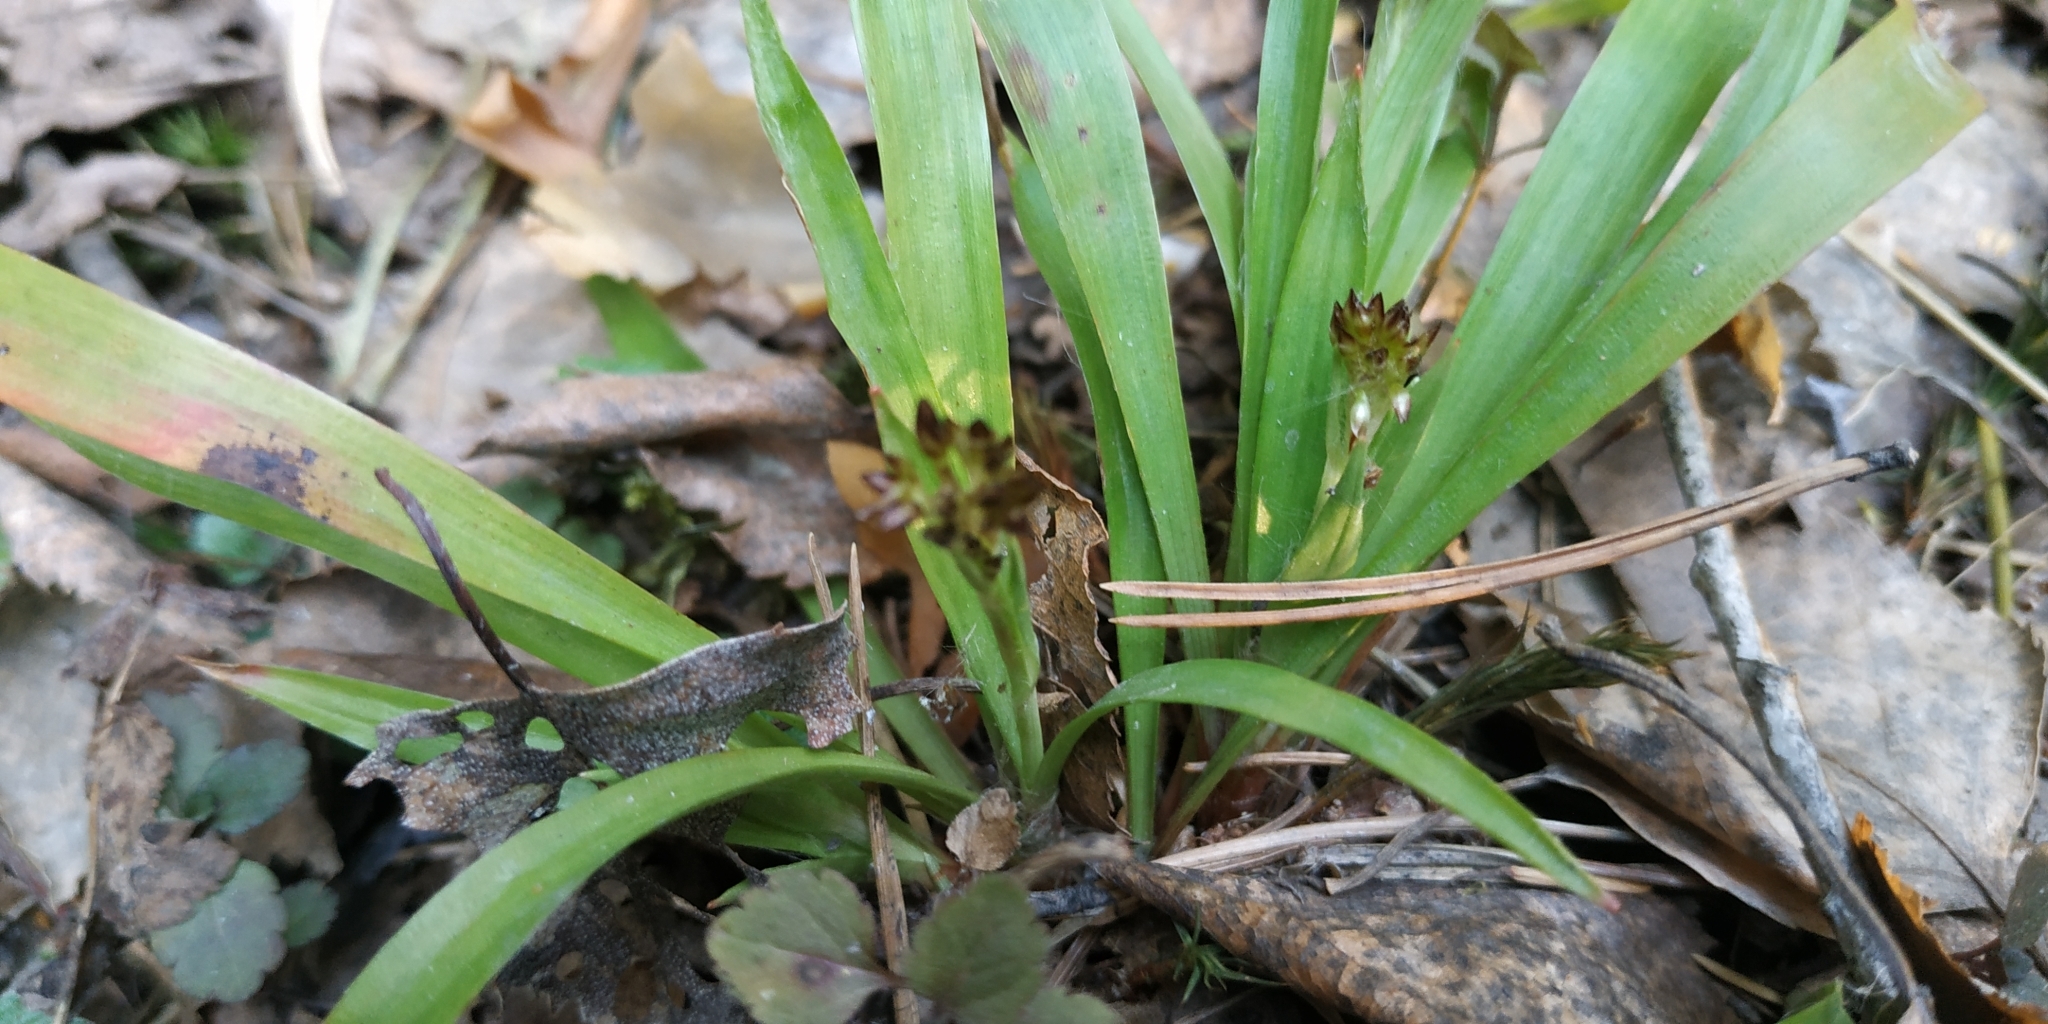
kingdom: Plantae
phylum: Tracheophyta
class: Liliopsida
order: Poales
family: Juncaceae
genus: Luzula
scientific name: Luzula pilosa
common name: Hairy wood-rush
